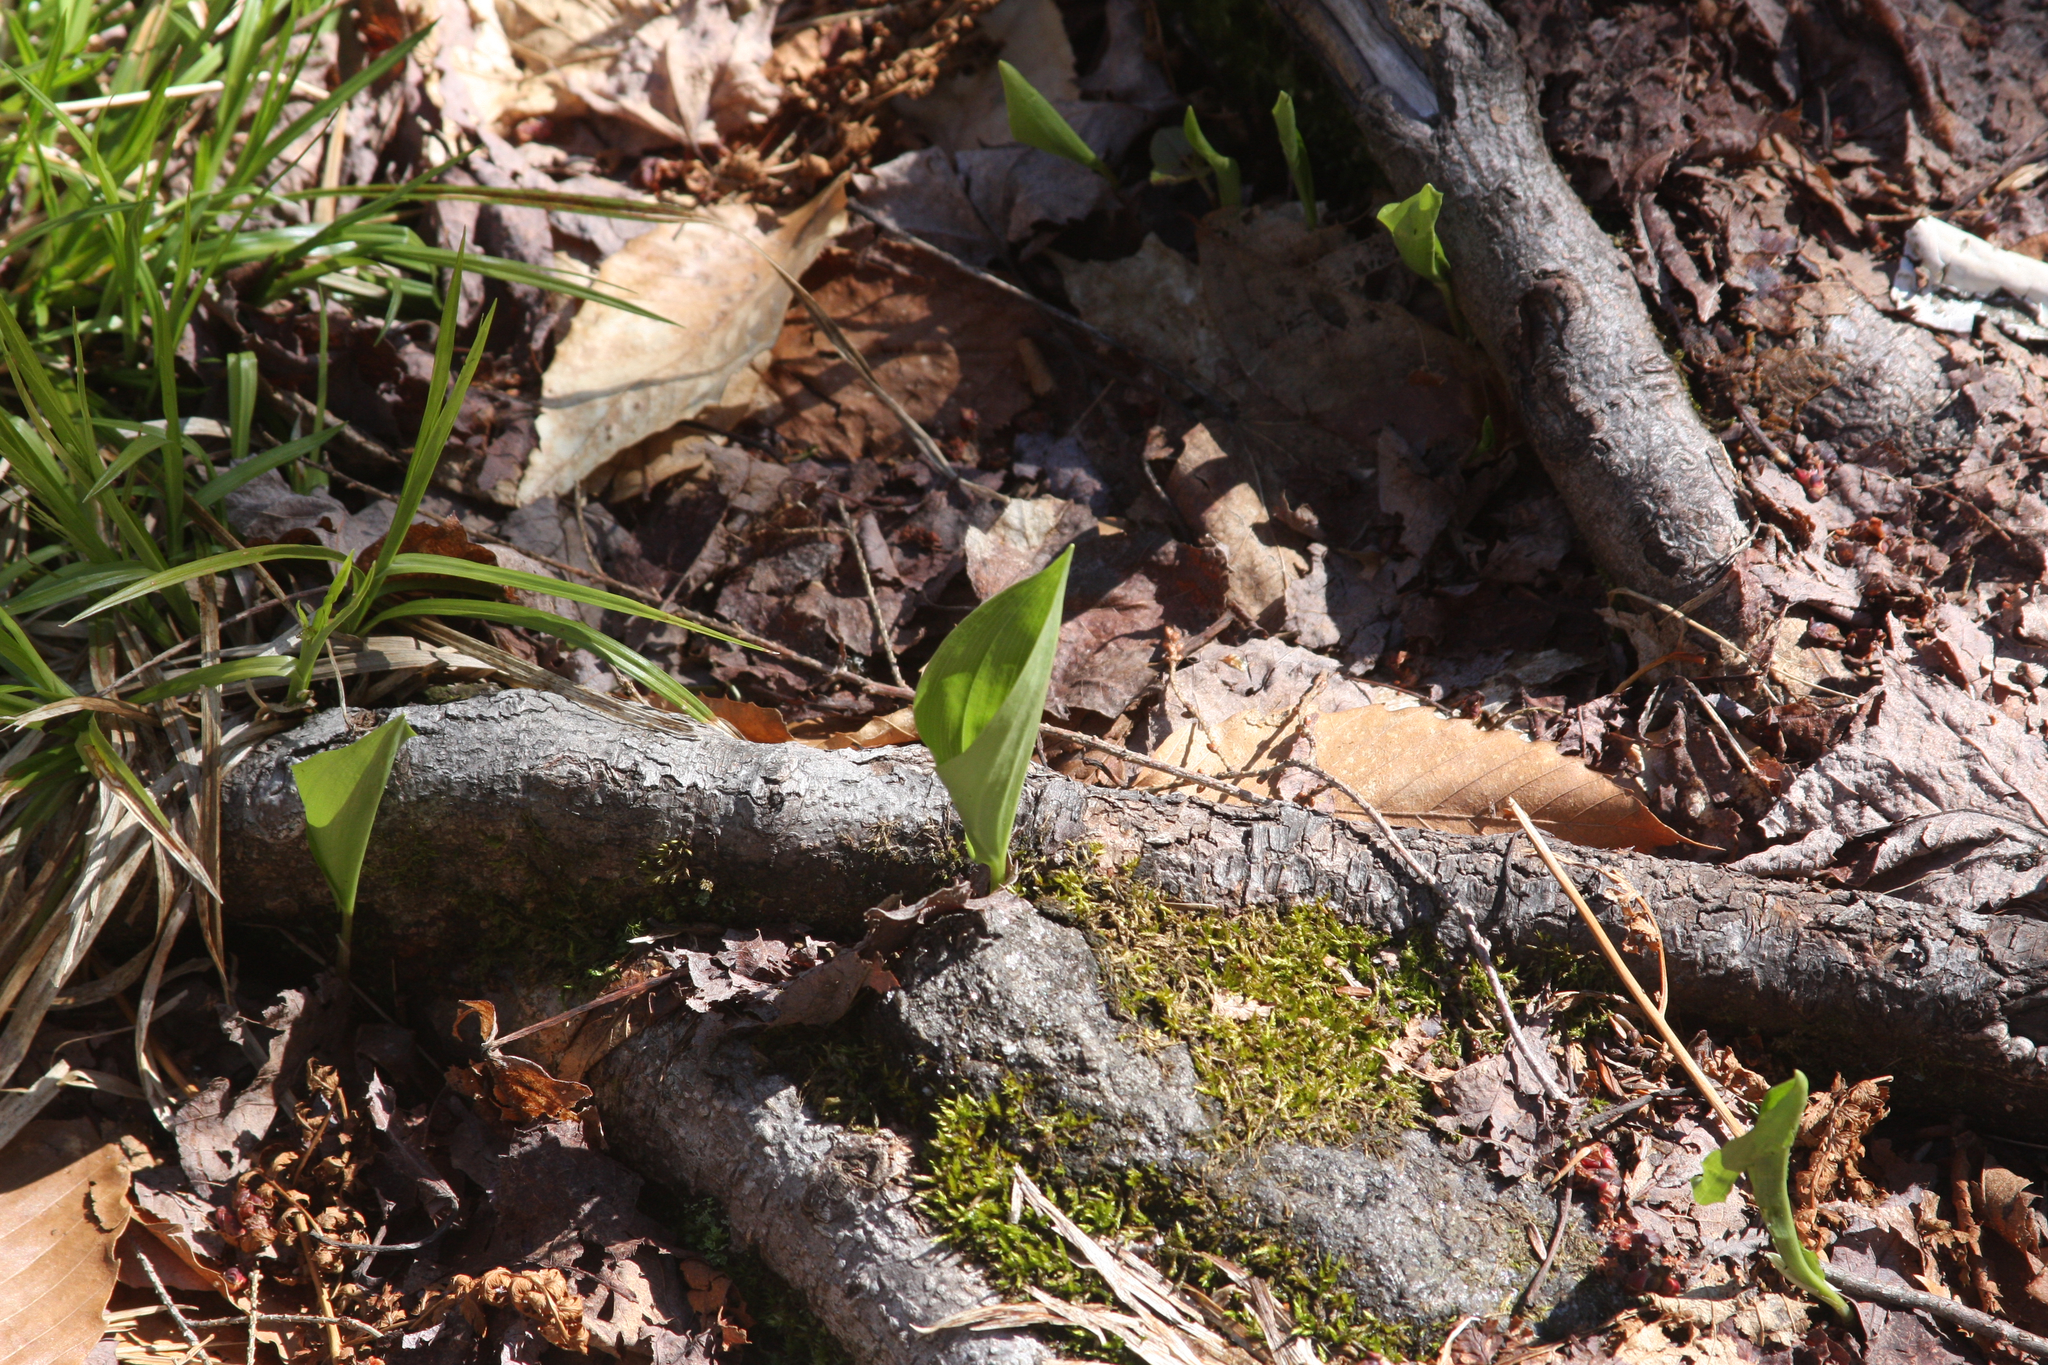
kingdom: Plantae
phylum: Tracheophyta
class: Liliopsida
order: Asparagales
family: Asparagaceae
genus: Maianthemum
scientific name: Maianthemum canadense
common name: False lily-of-the-valley
